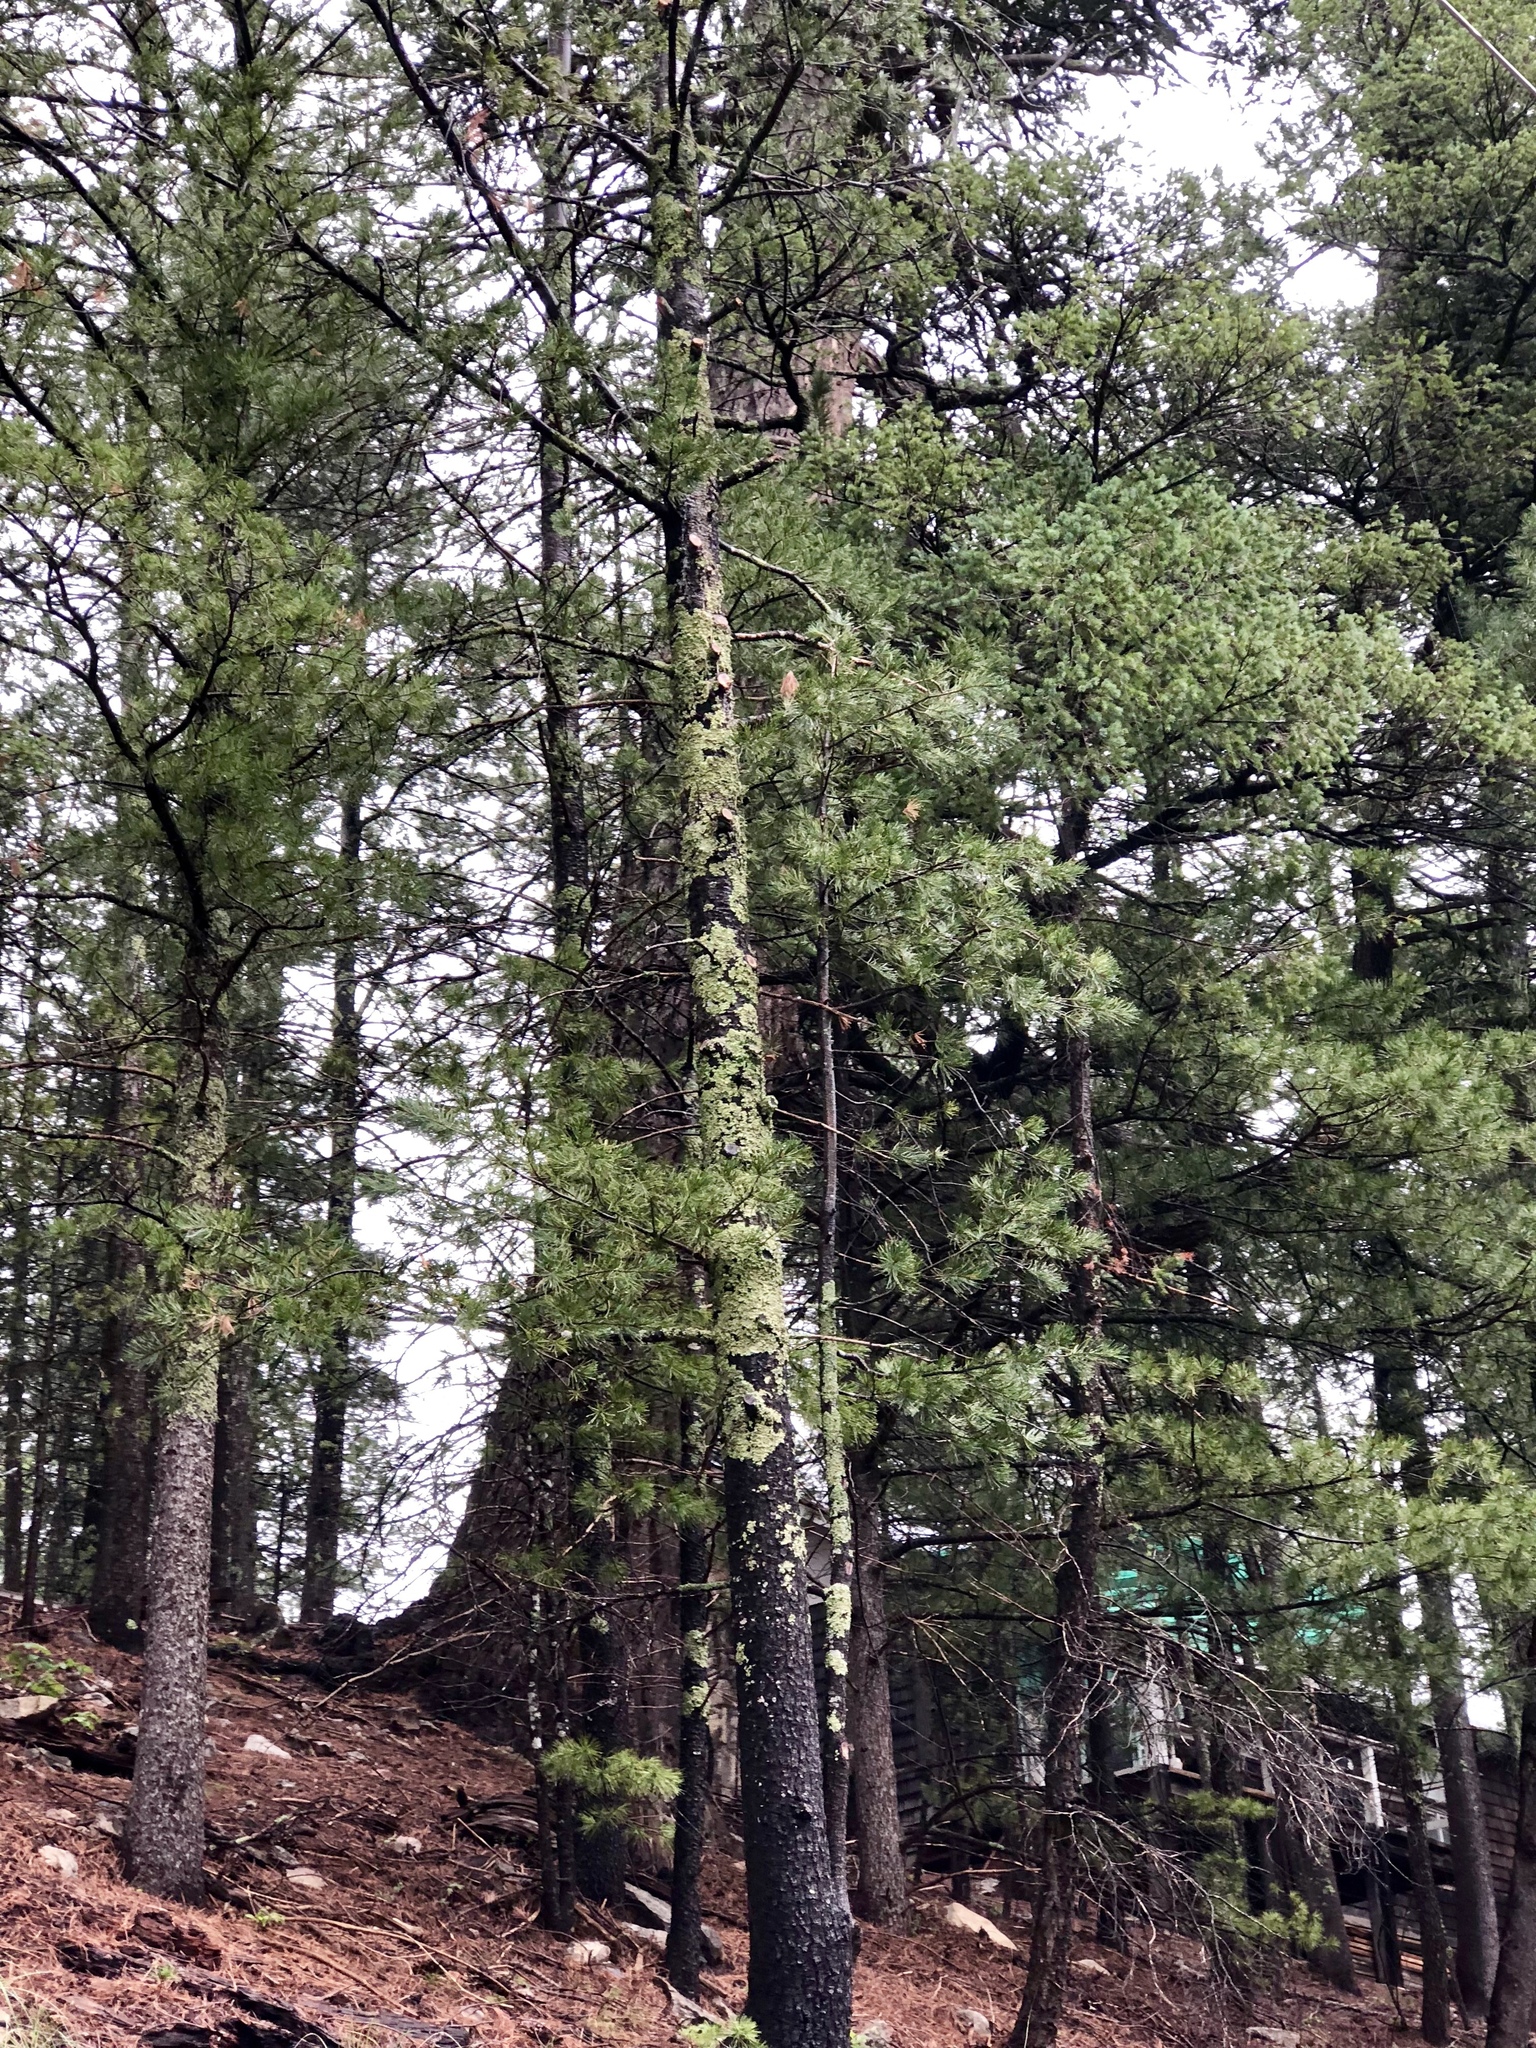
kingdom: Plantae
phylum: Tracheophyta
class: Pinopsida
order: Pinales
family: Pinaceae
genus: Pinus
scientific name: Pinus ponderosa
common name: Western yellow-pine
